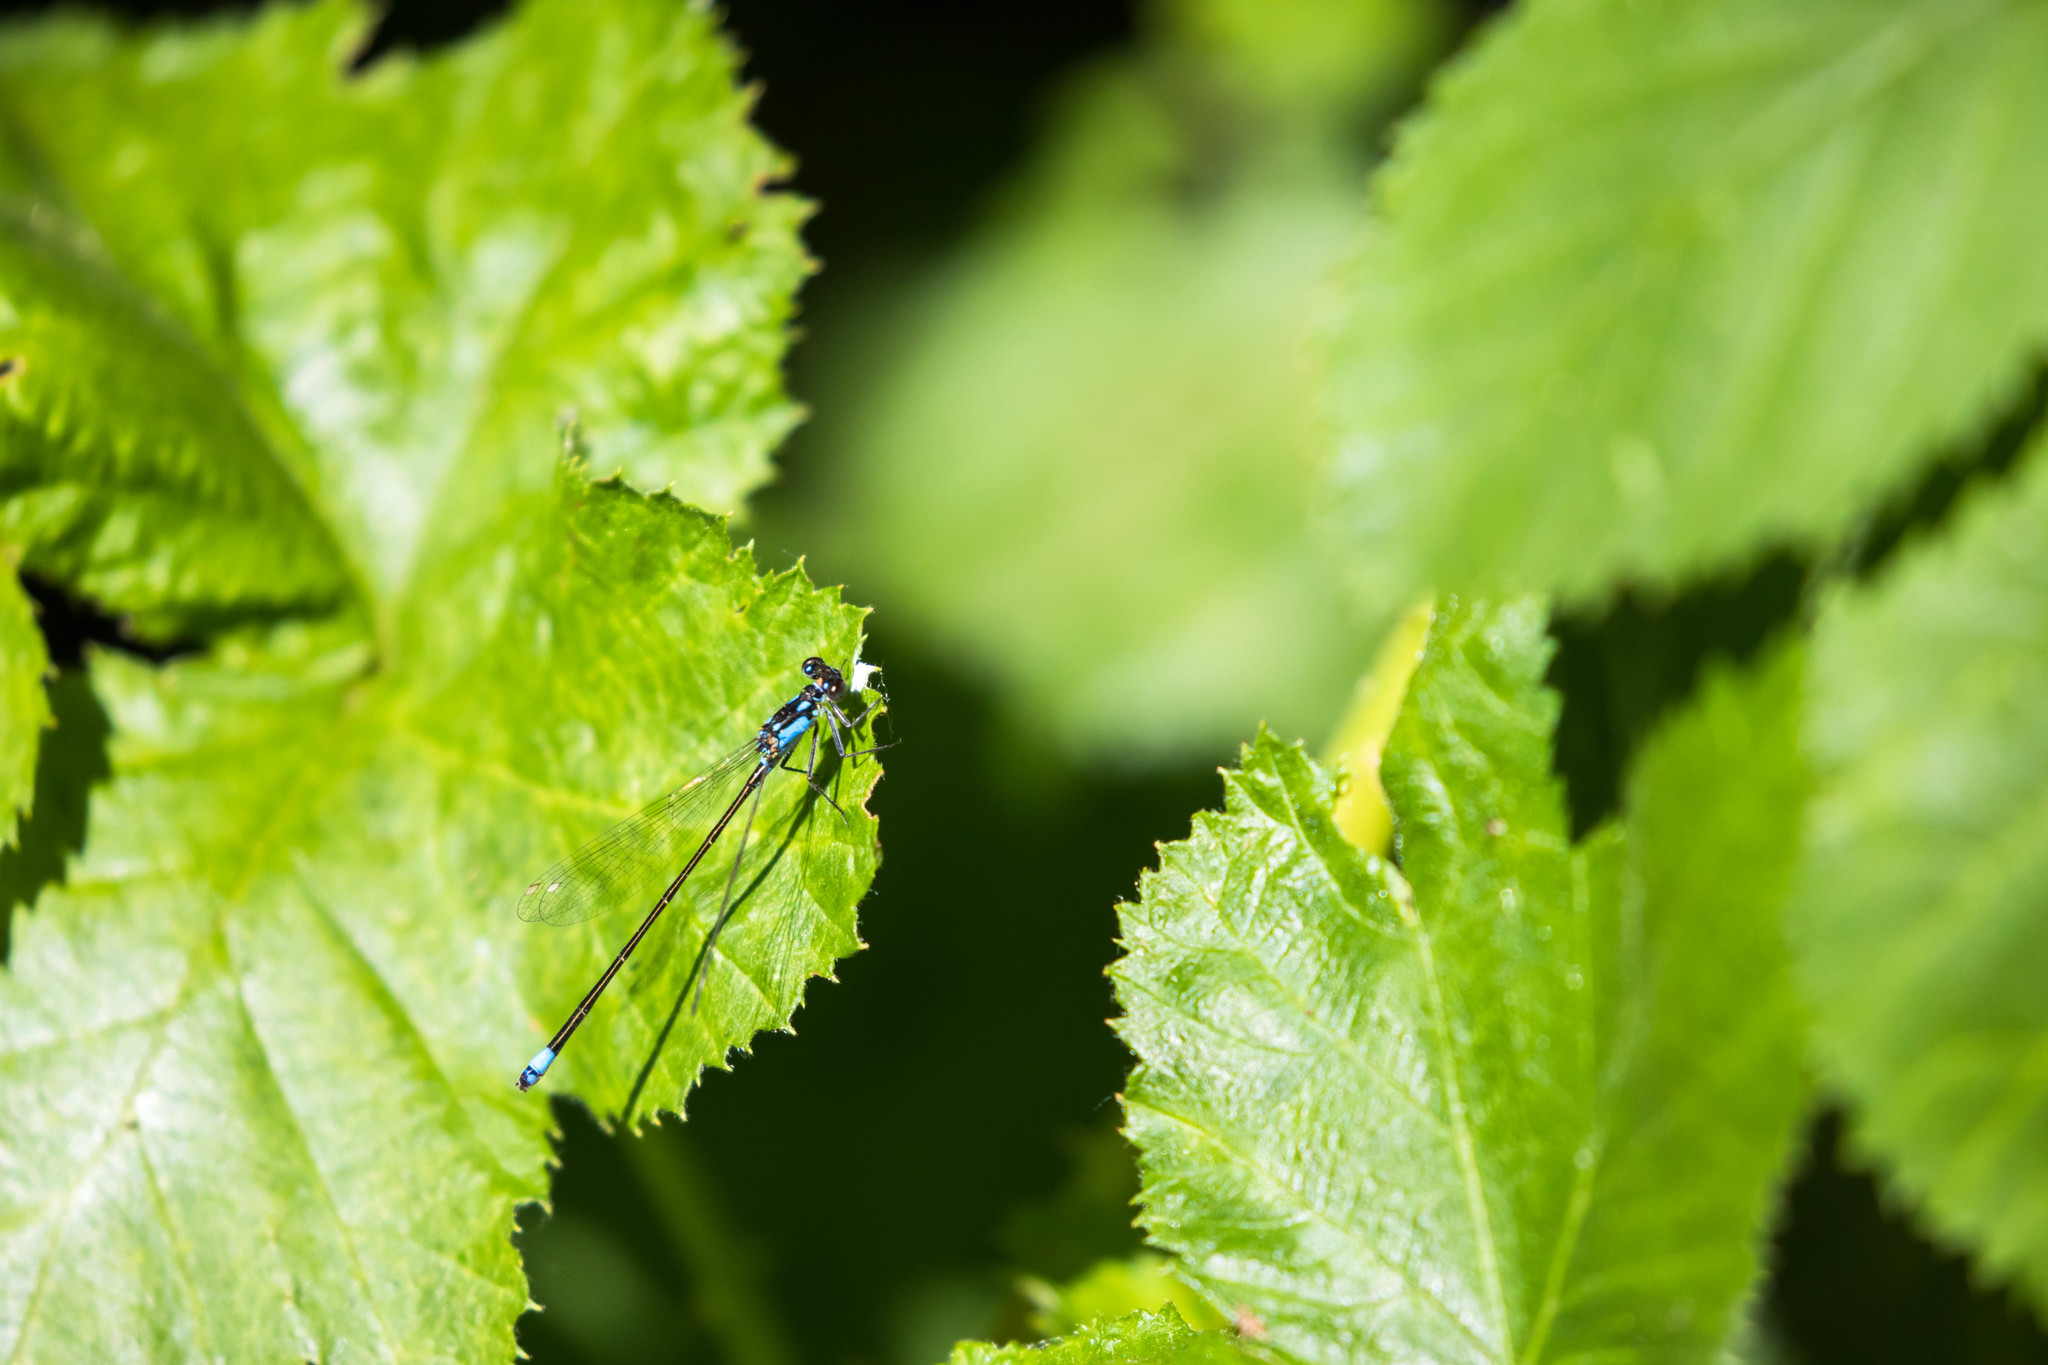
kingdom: Animalia
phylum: Arthropoda
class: Insecta
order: Odonata
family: Coenagrionidae
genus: Ischnura
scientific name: Ischnura cervula
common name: Pacific forktail
